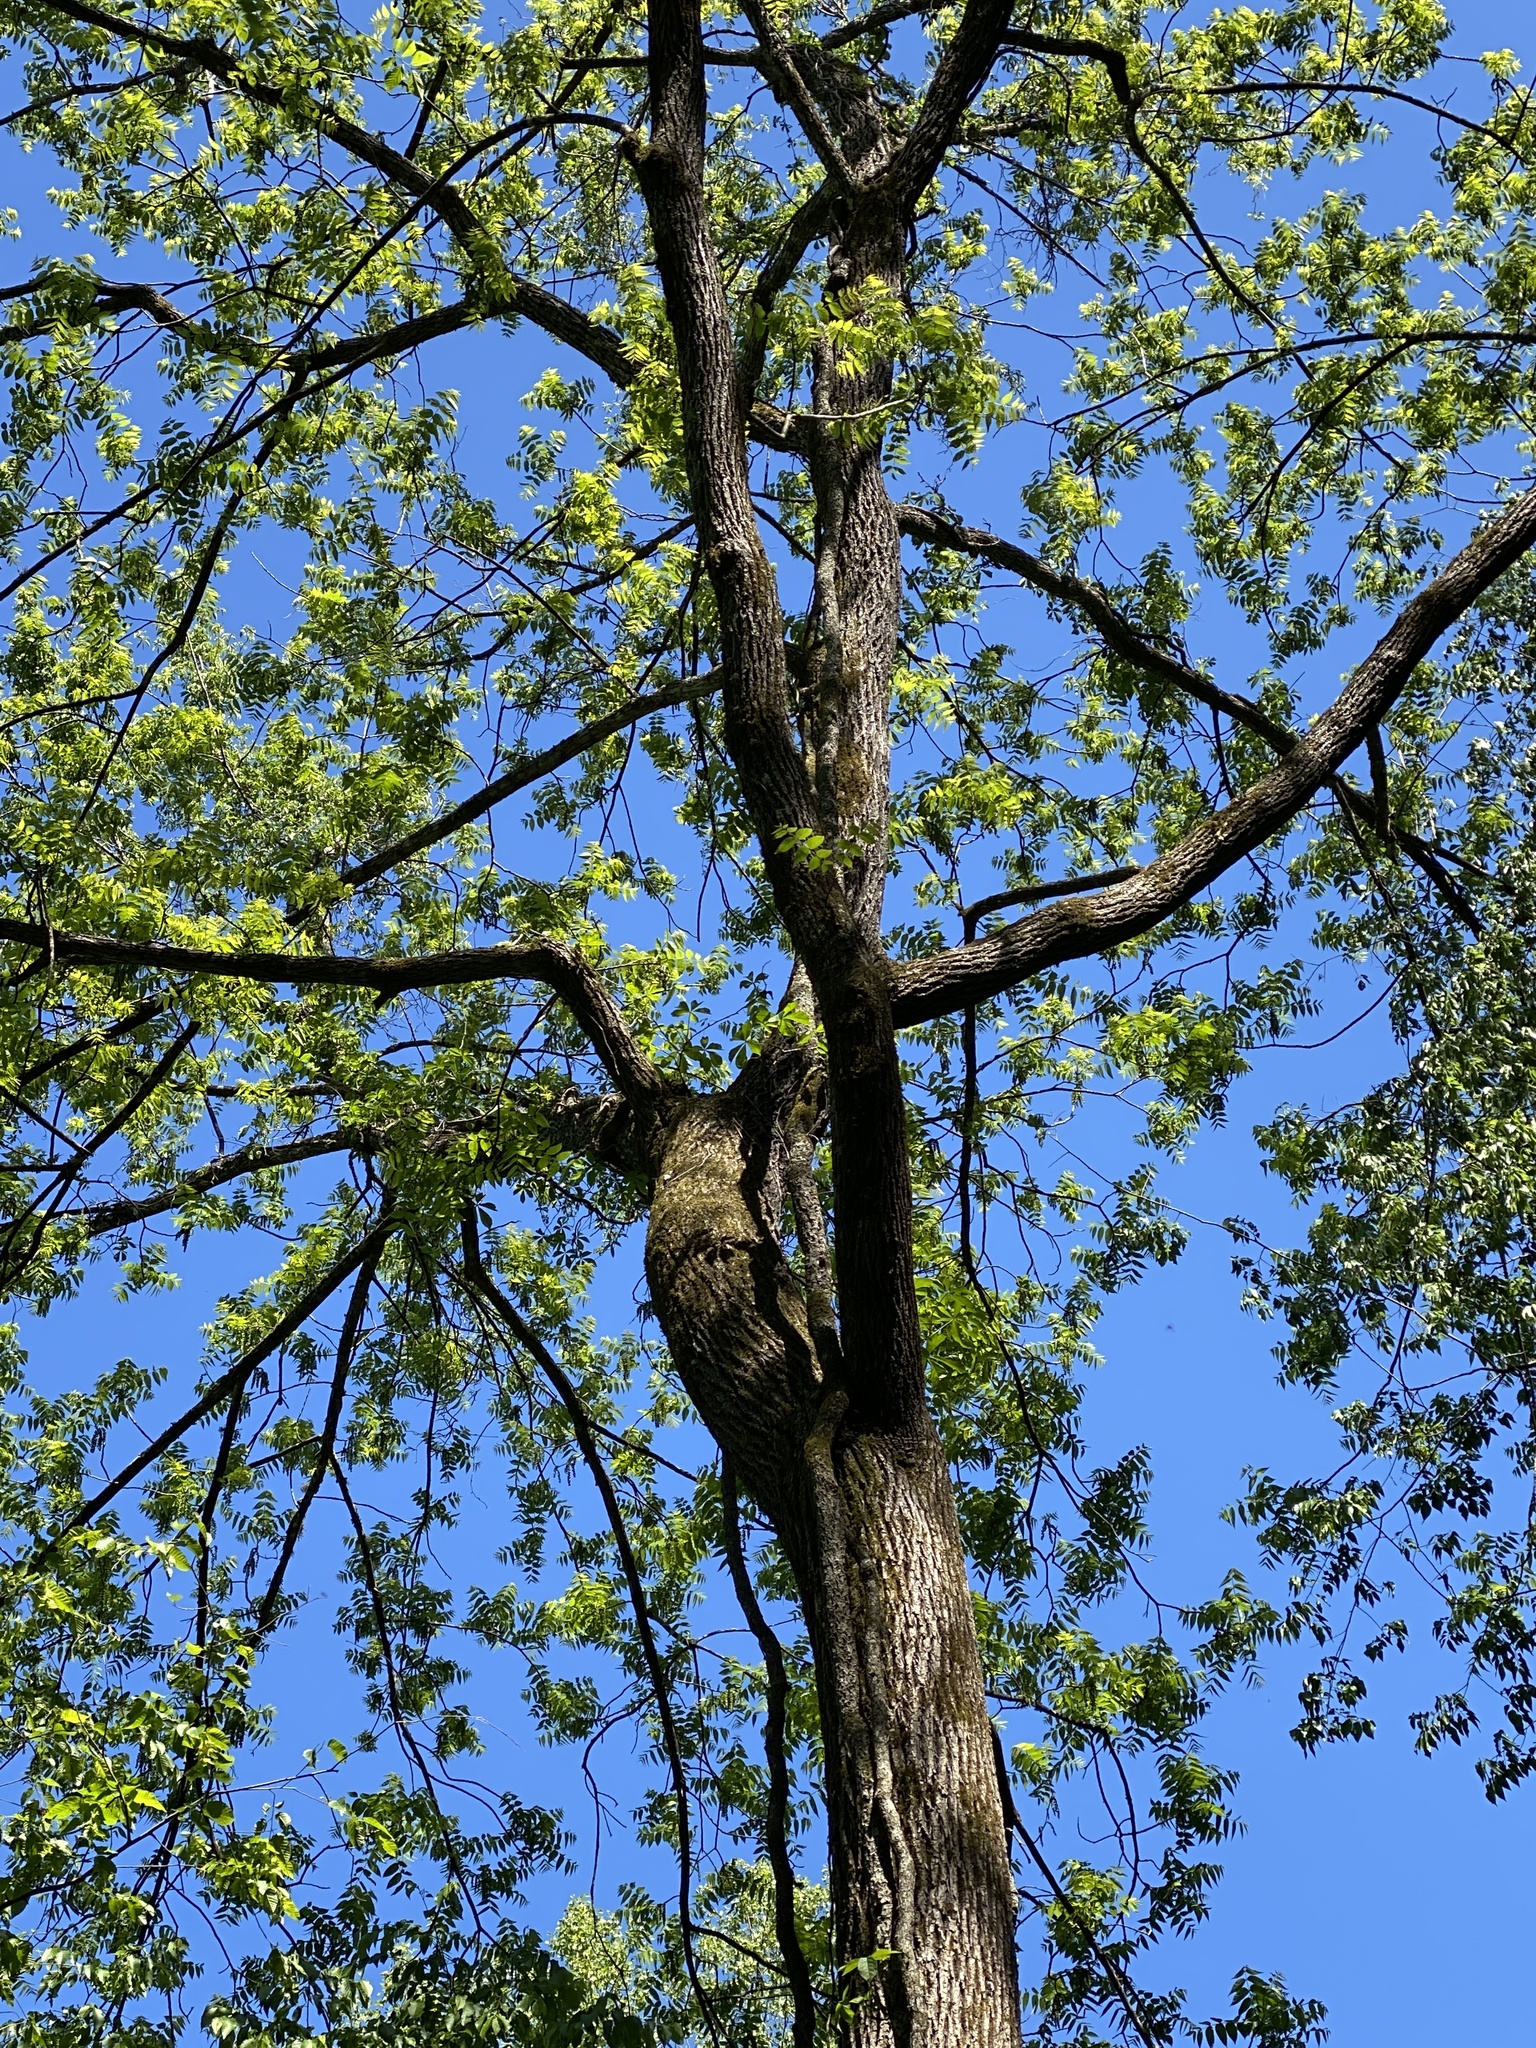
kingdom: Plantae
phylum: Tracheophyta
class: Magnoliopsida
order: Fagales
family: Juglandaceae
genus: Juglans
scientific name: Juglans nigra
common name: Black walnut
